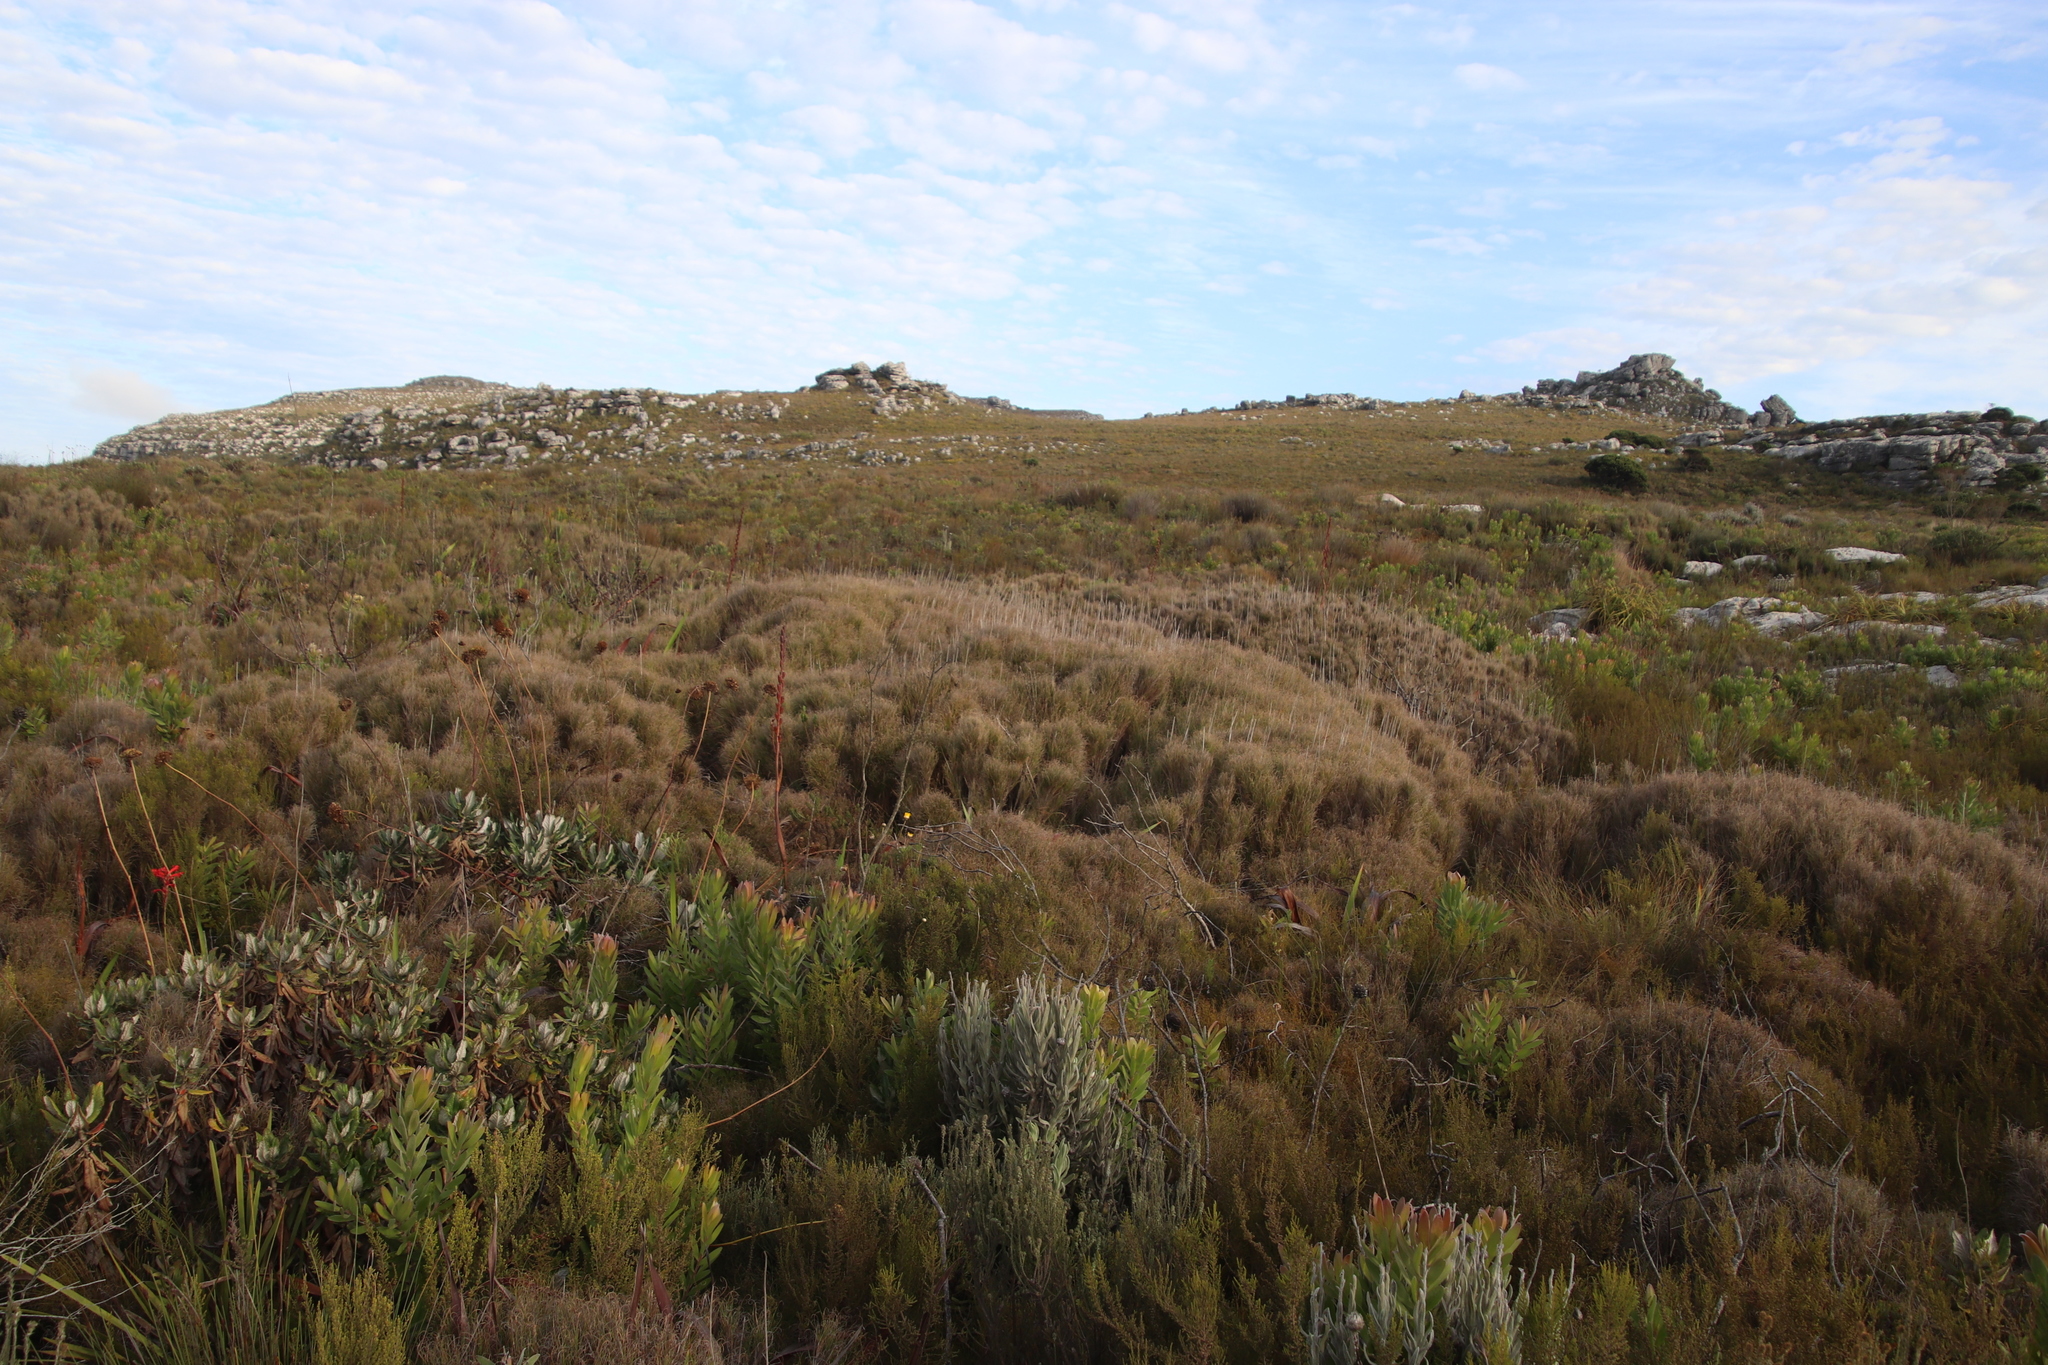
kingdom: Plantae
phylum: Tracheophyta
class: Liliopsida
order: Poales
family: Poaceae
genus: Pseudopentameris
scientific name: Pseudopentameris macrantha
